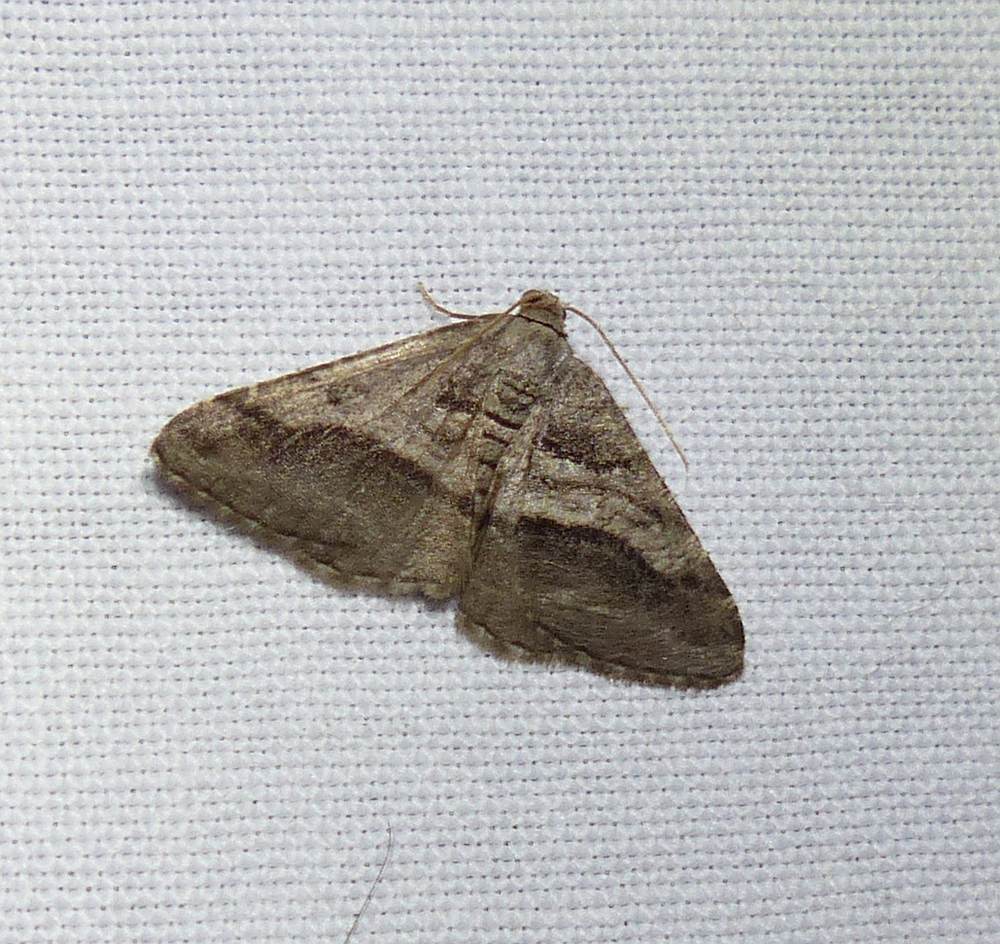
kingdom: Animalia
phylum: Arthropoda
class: Insecta
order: Lepidoptera
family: Geometridae
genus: Digrammia
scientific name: Digrammia continuata
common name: Curve-lined angle
